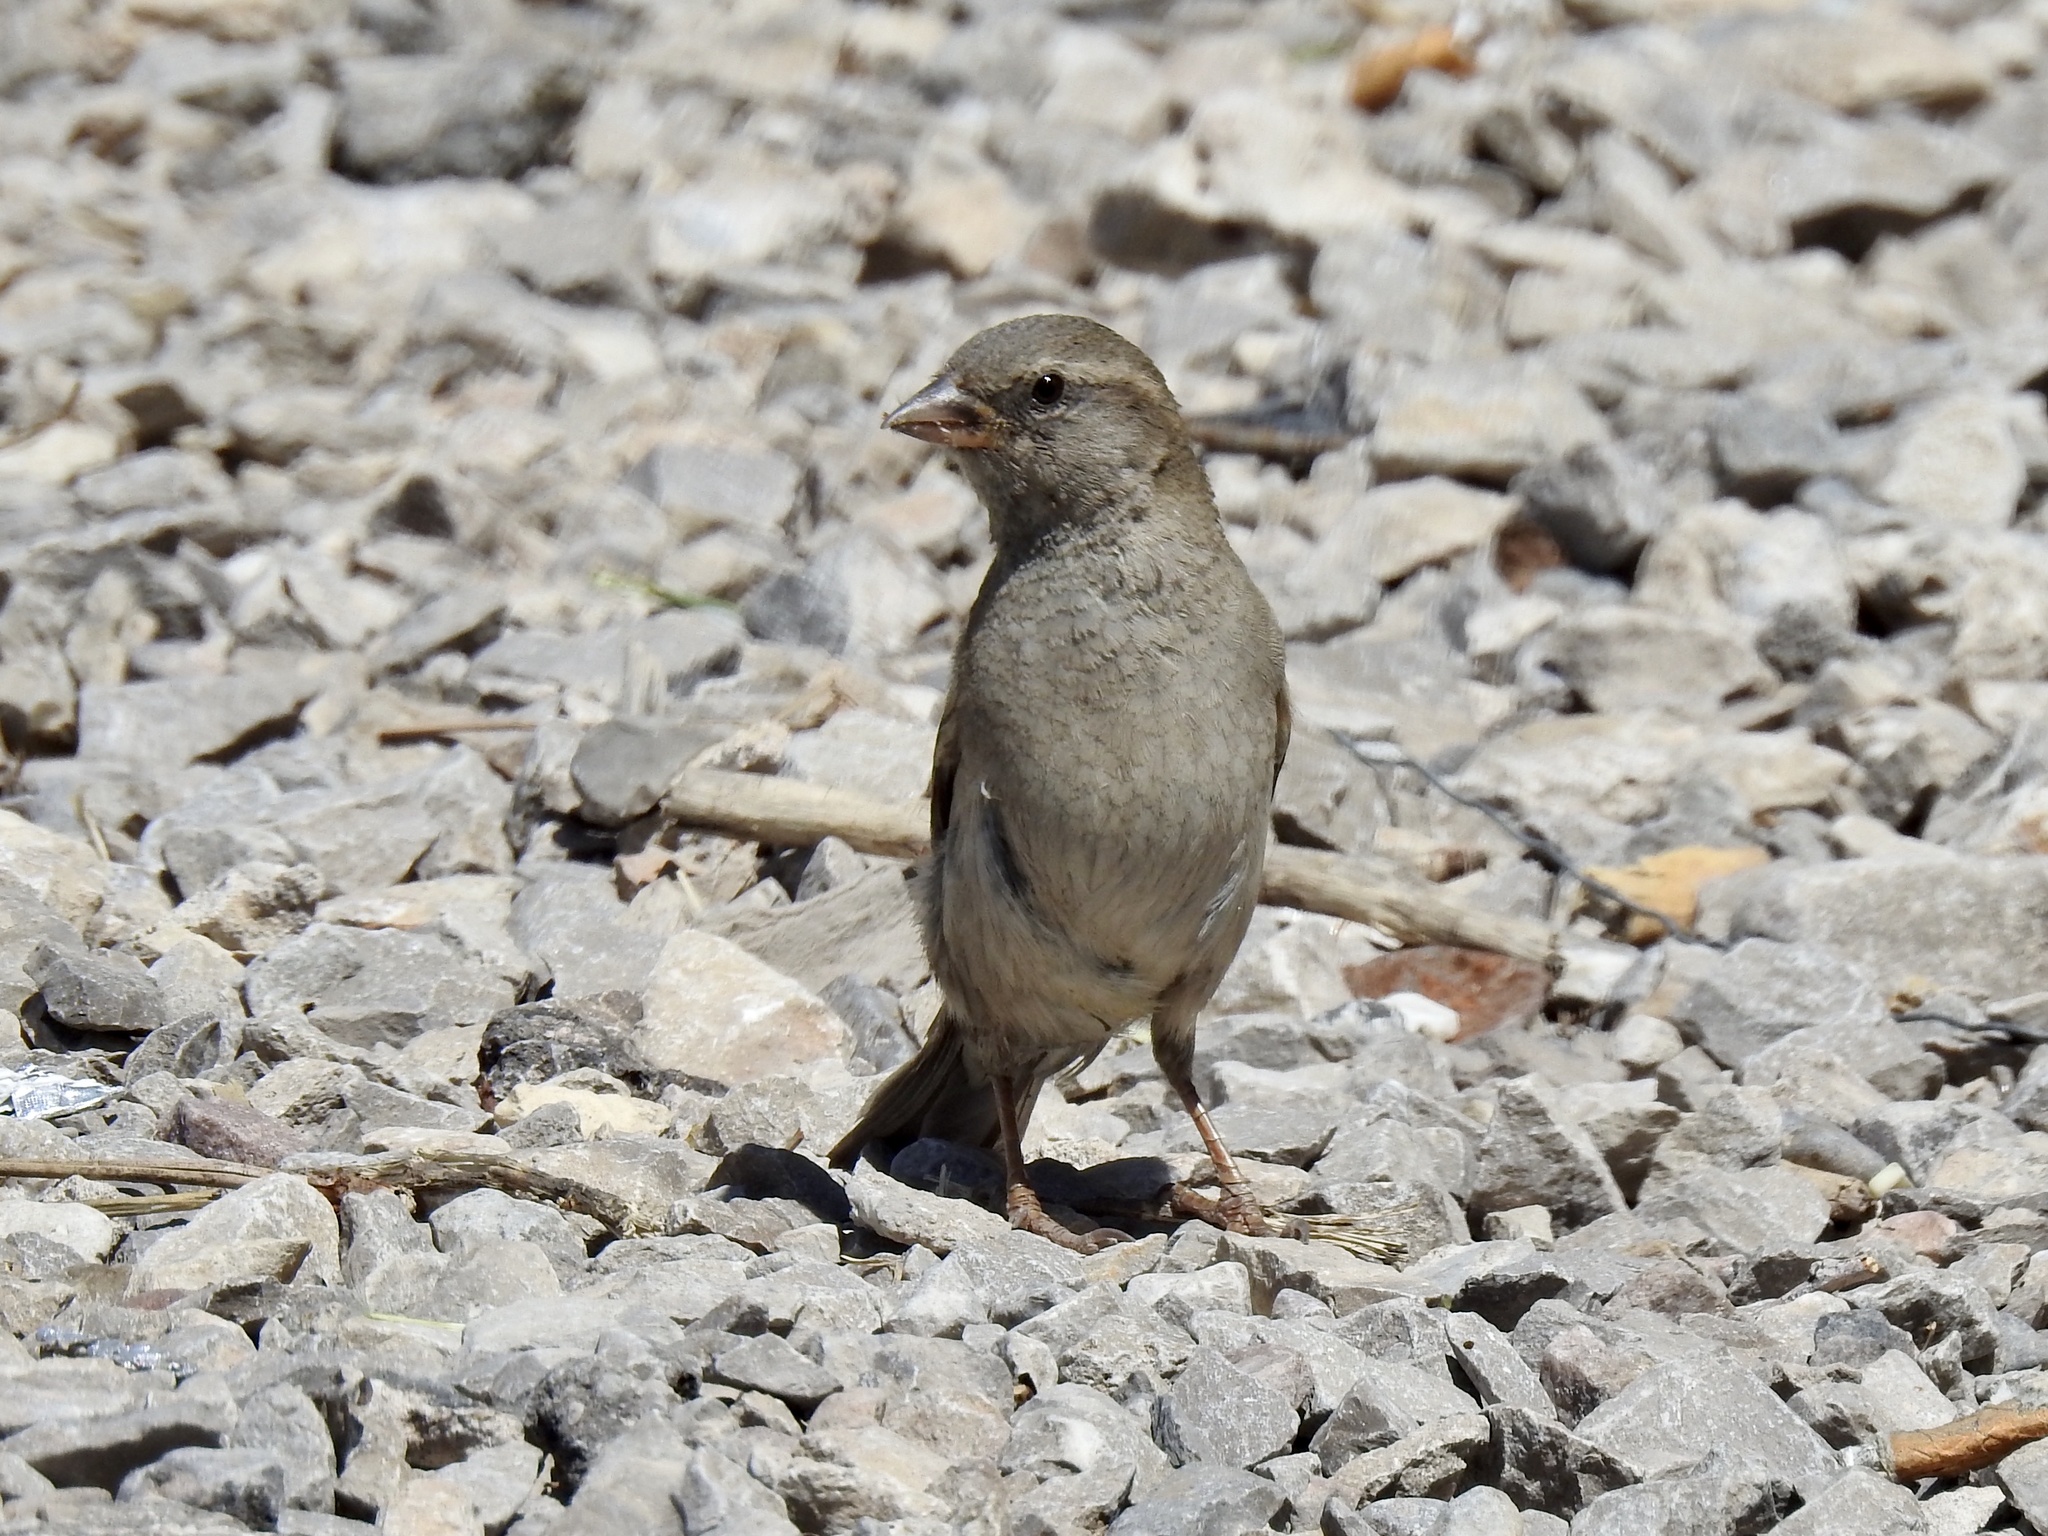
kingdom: Animalia
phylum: Chordata
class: Aves
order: Passeriformes
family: Passeridae
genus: Passer
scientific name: Passer domesticus
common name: House sparrow
